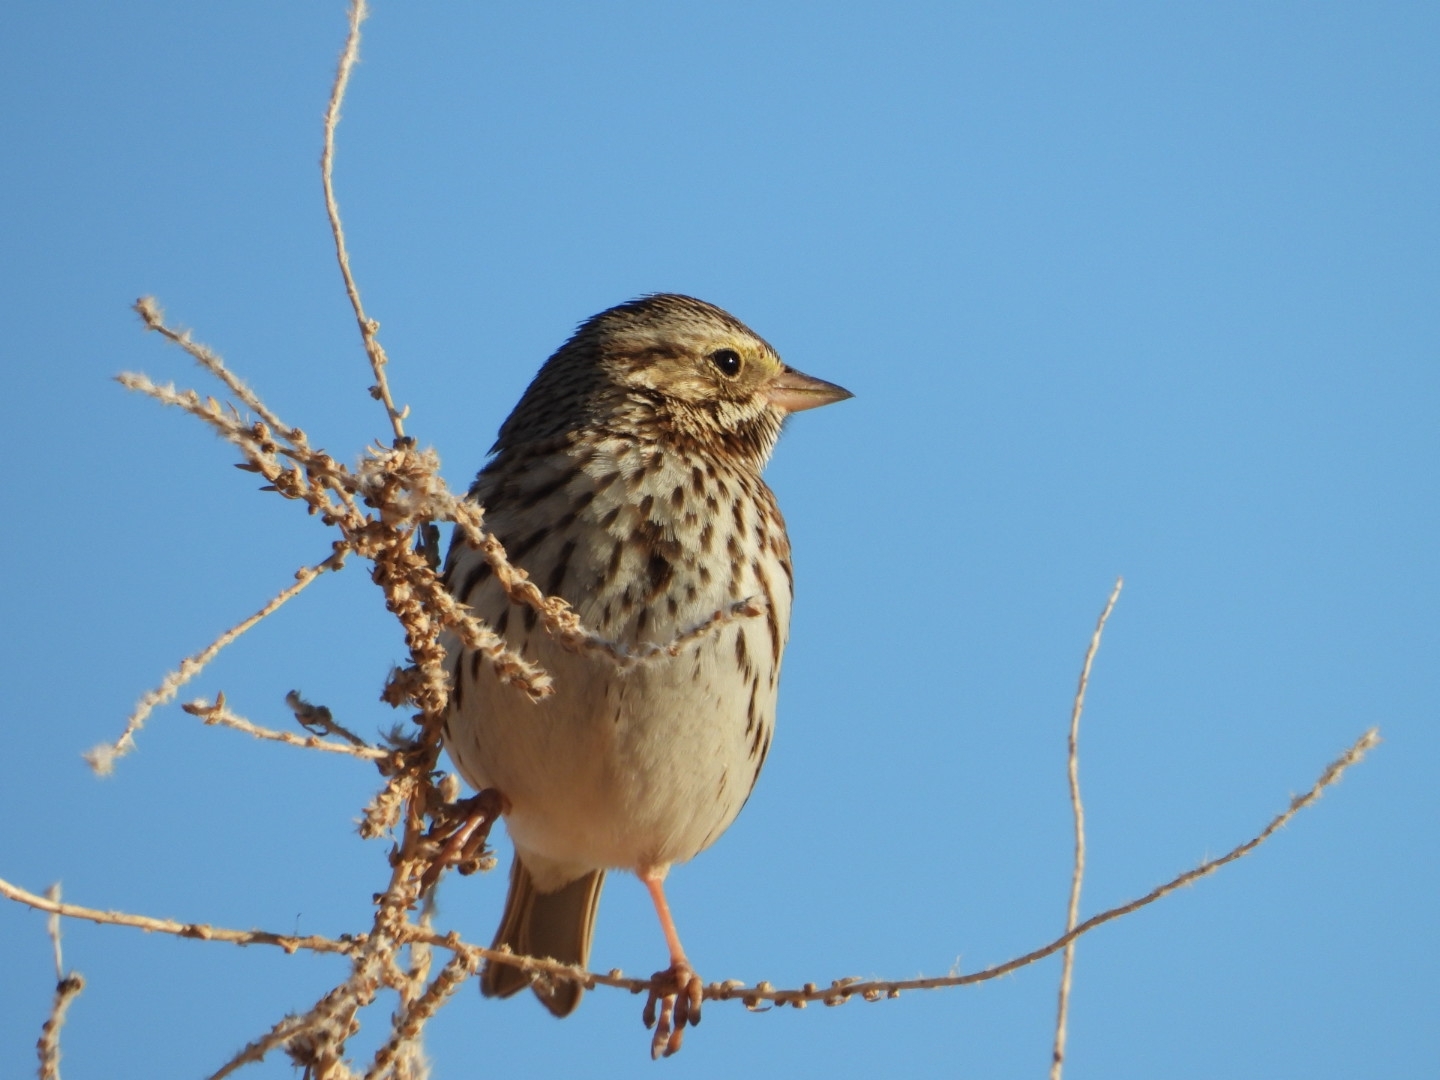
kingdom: Animalia
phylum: Chordata
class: Aves
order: Passeriformes
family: Passerellidae
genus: Passerculus
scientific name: Passerculus sandwichensis
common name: Savannah sparrow
